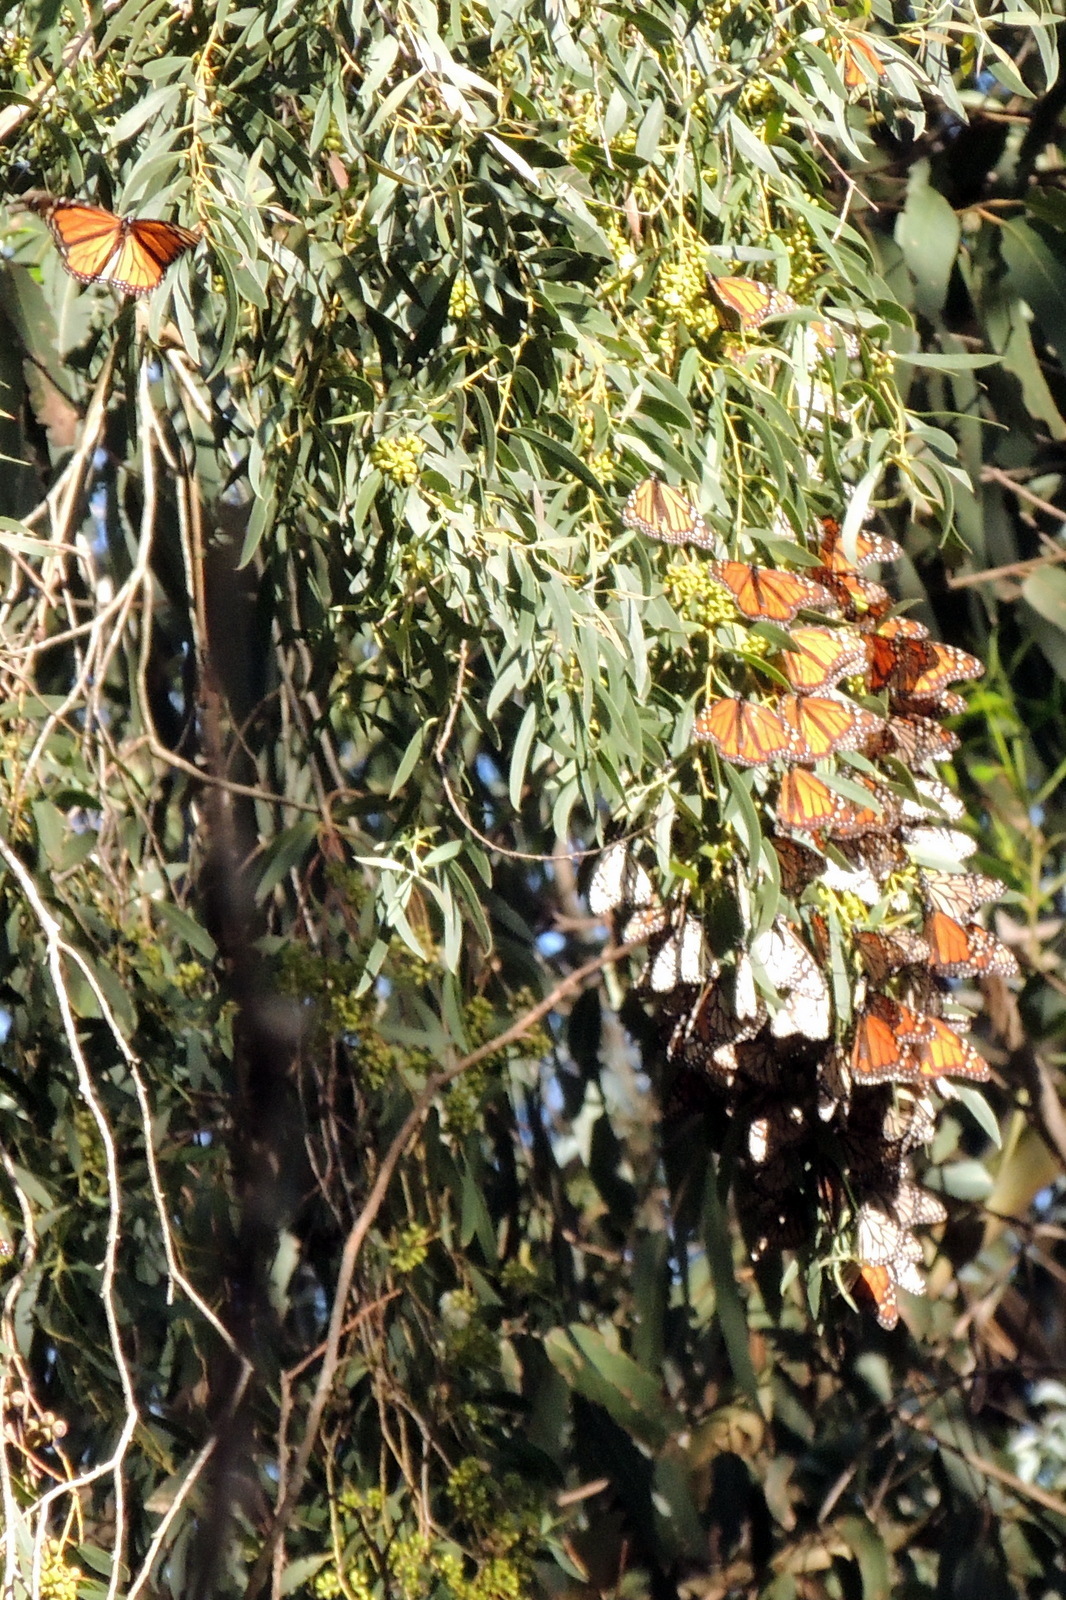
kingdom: Animalia
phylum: Arthropoda
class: Insecta
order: Lepidoptera
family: Nymphalidae
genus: Danaus
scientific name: Danaus plexippus
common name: Monarch
